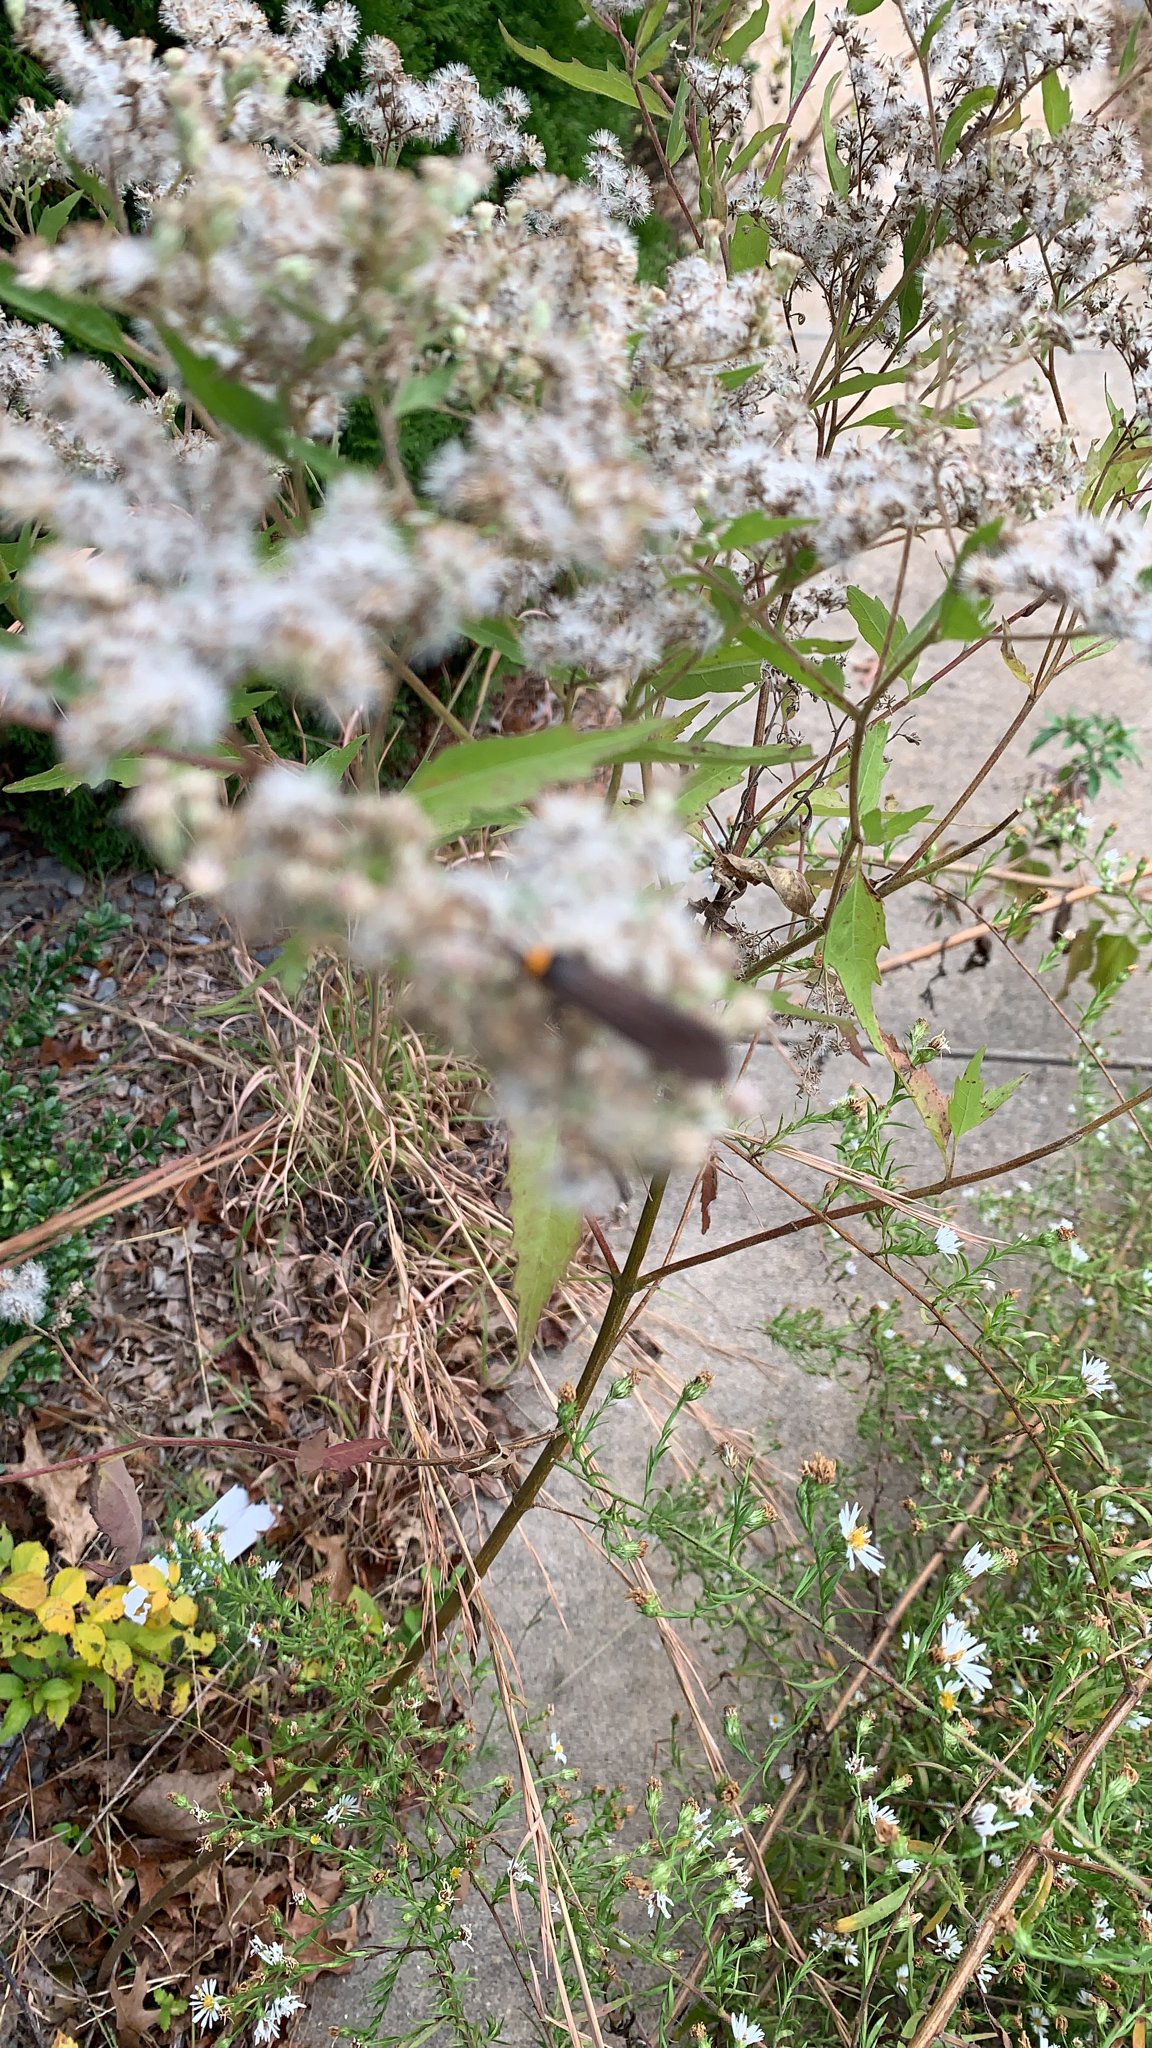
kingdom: Animalia
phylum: Arthropoda
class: Insecta
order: Lepidoptera
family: Erebidae
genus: Cisseps
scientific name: Cisseps fulvicollis
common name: Yellow-collared scape moth
